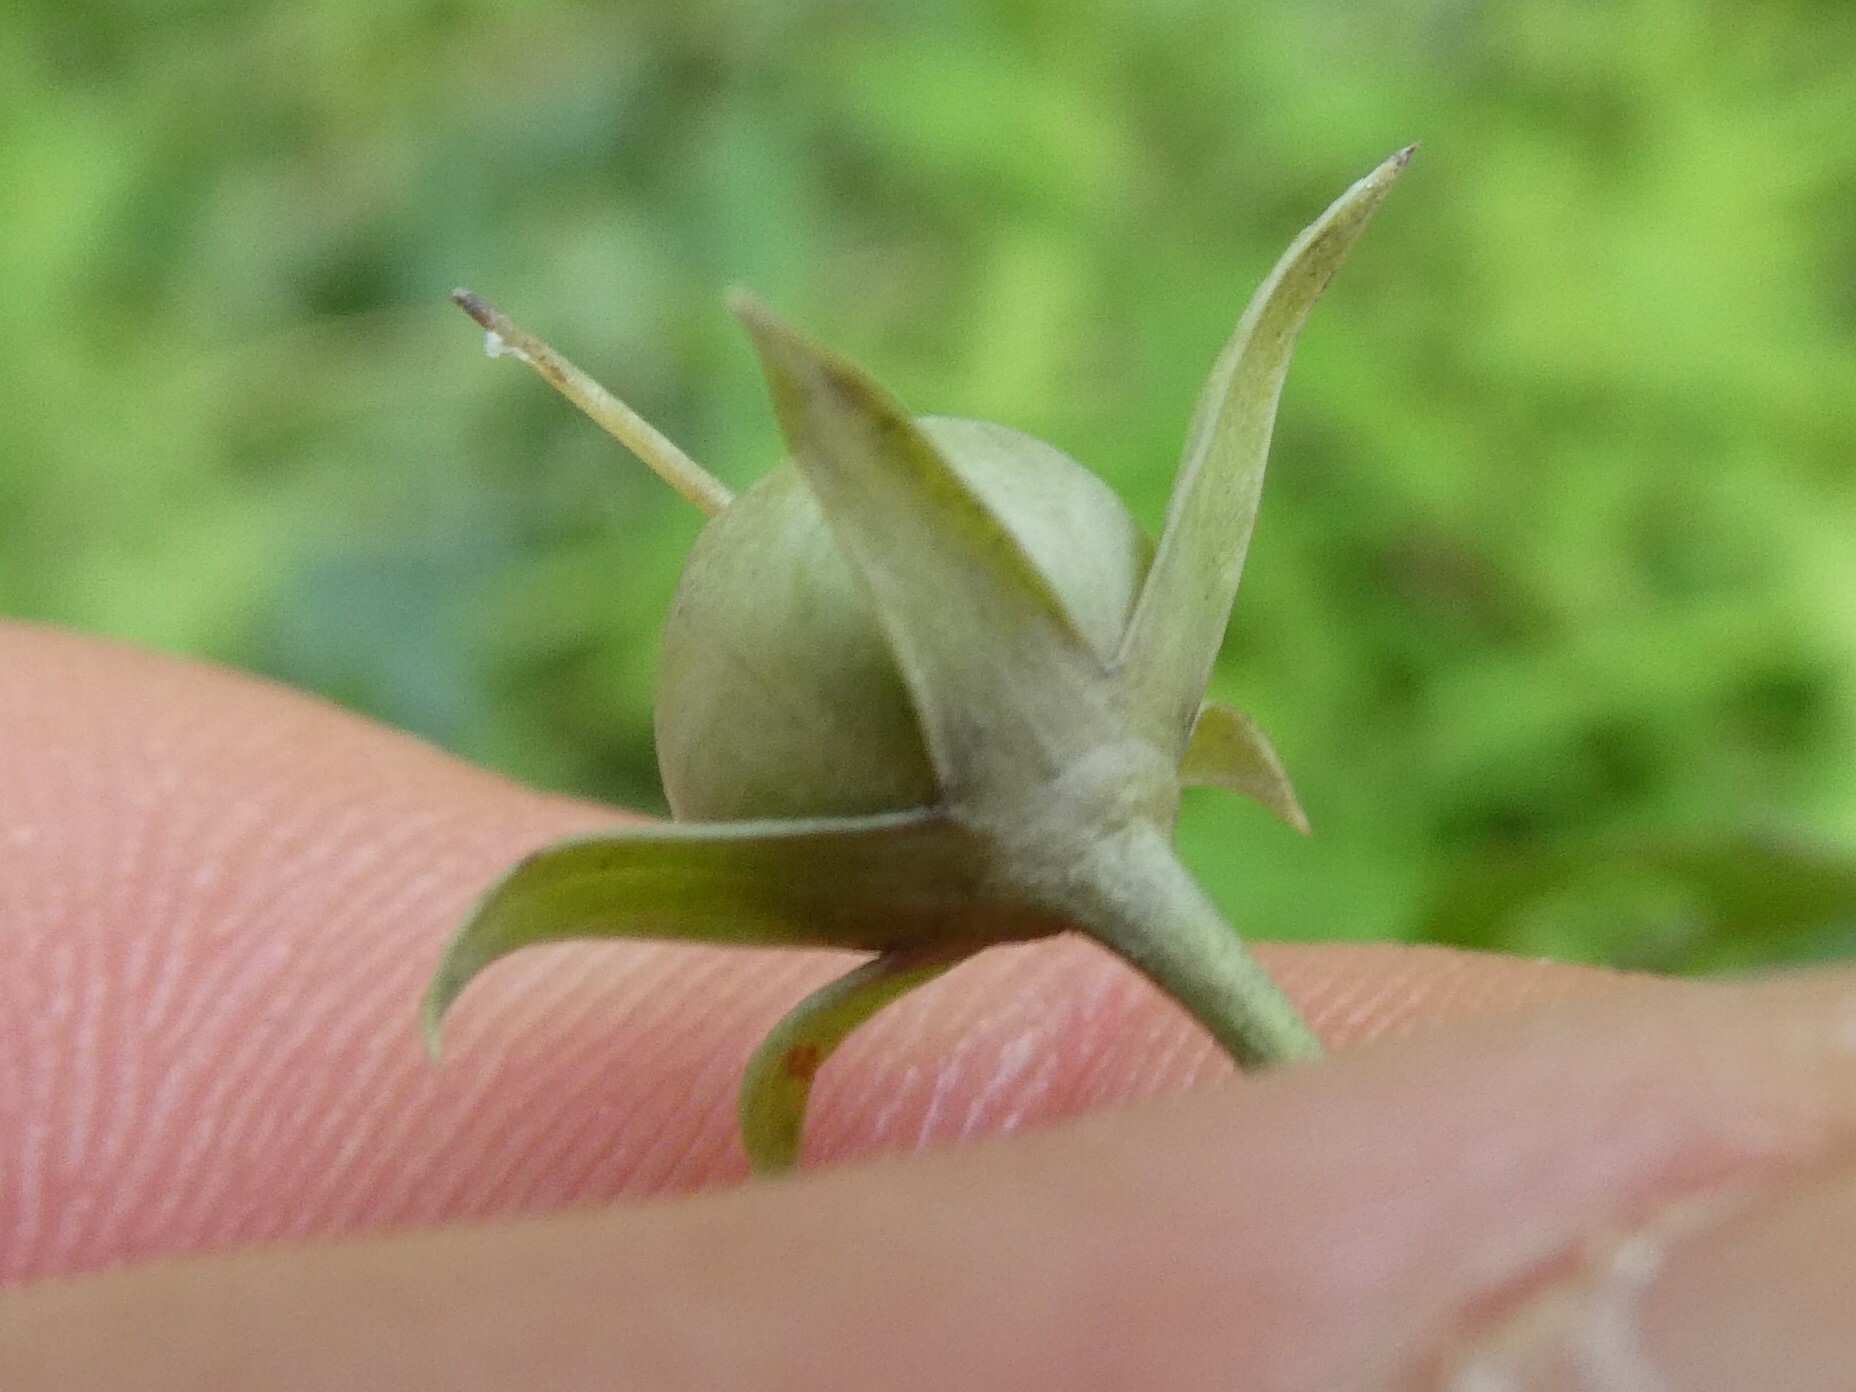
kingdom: Plantae
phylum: Tracheophyta
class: Magnoliopsida
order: Ericales
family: Primulaceae
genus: Lysimachia
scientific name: Lysimachia ciliata
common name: Fringed loosestrife
